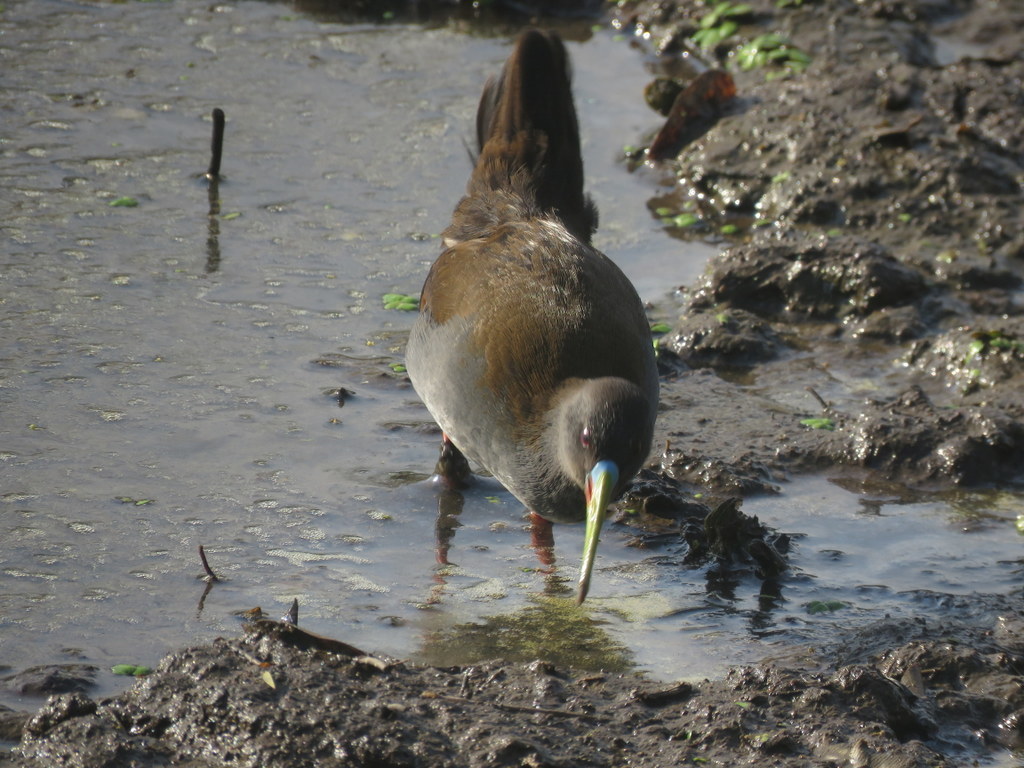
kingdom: Animalia
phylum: Chordata
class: Aves
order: Gruiformes
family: Rallidae
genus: Pardirallus
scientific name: Pardirallus sanguinolentus
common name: Plumbeous rail
